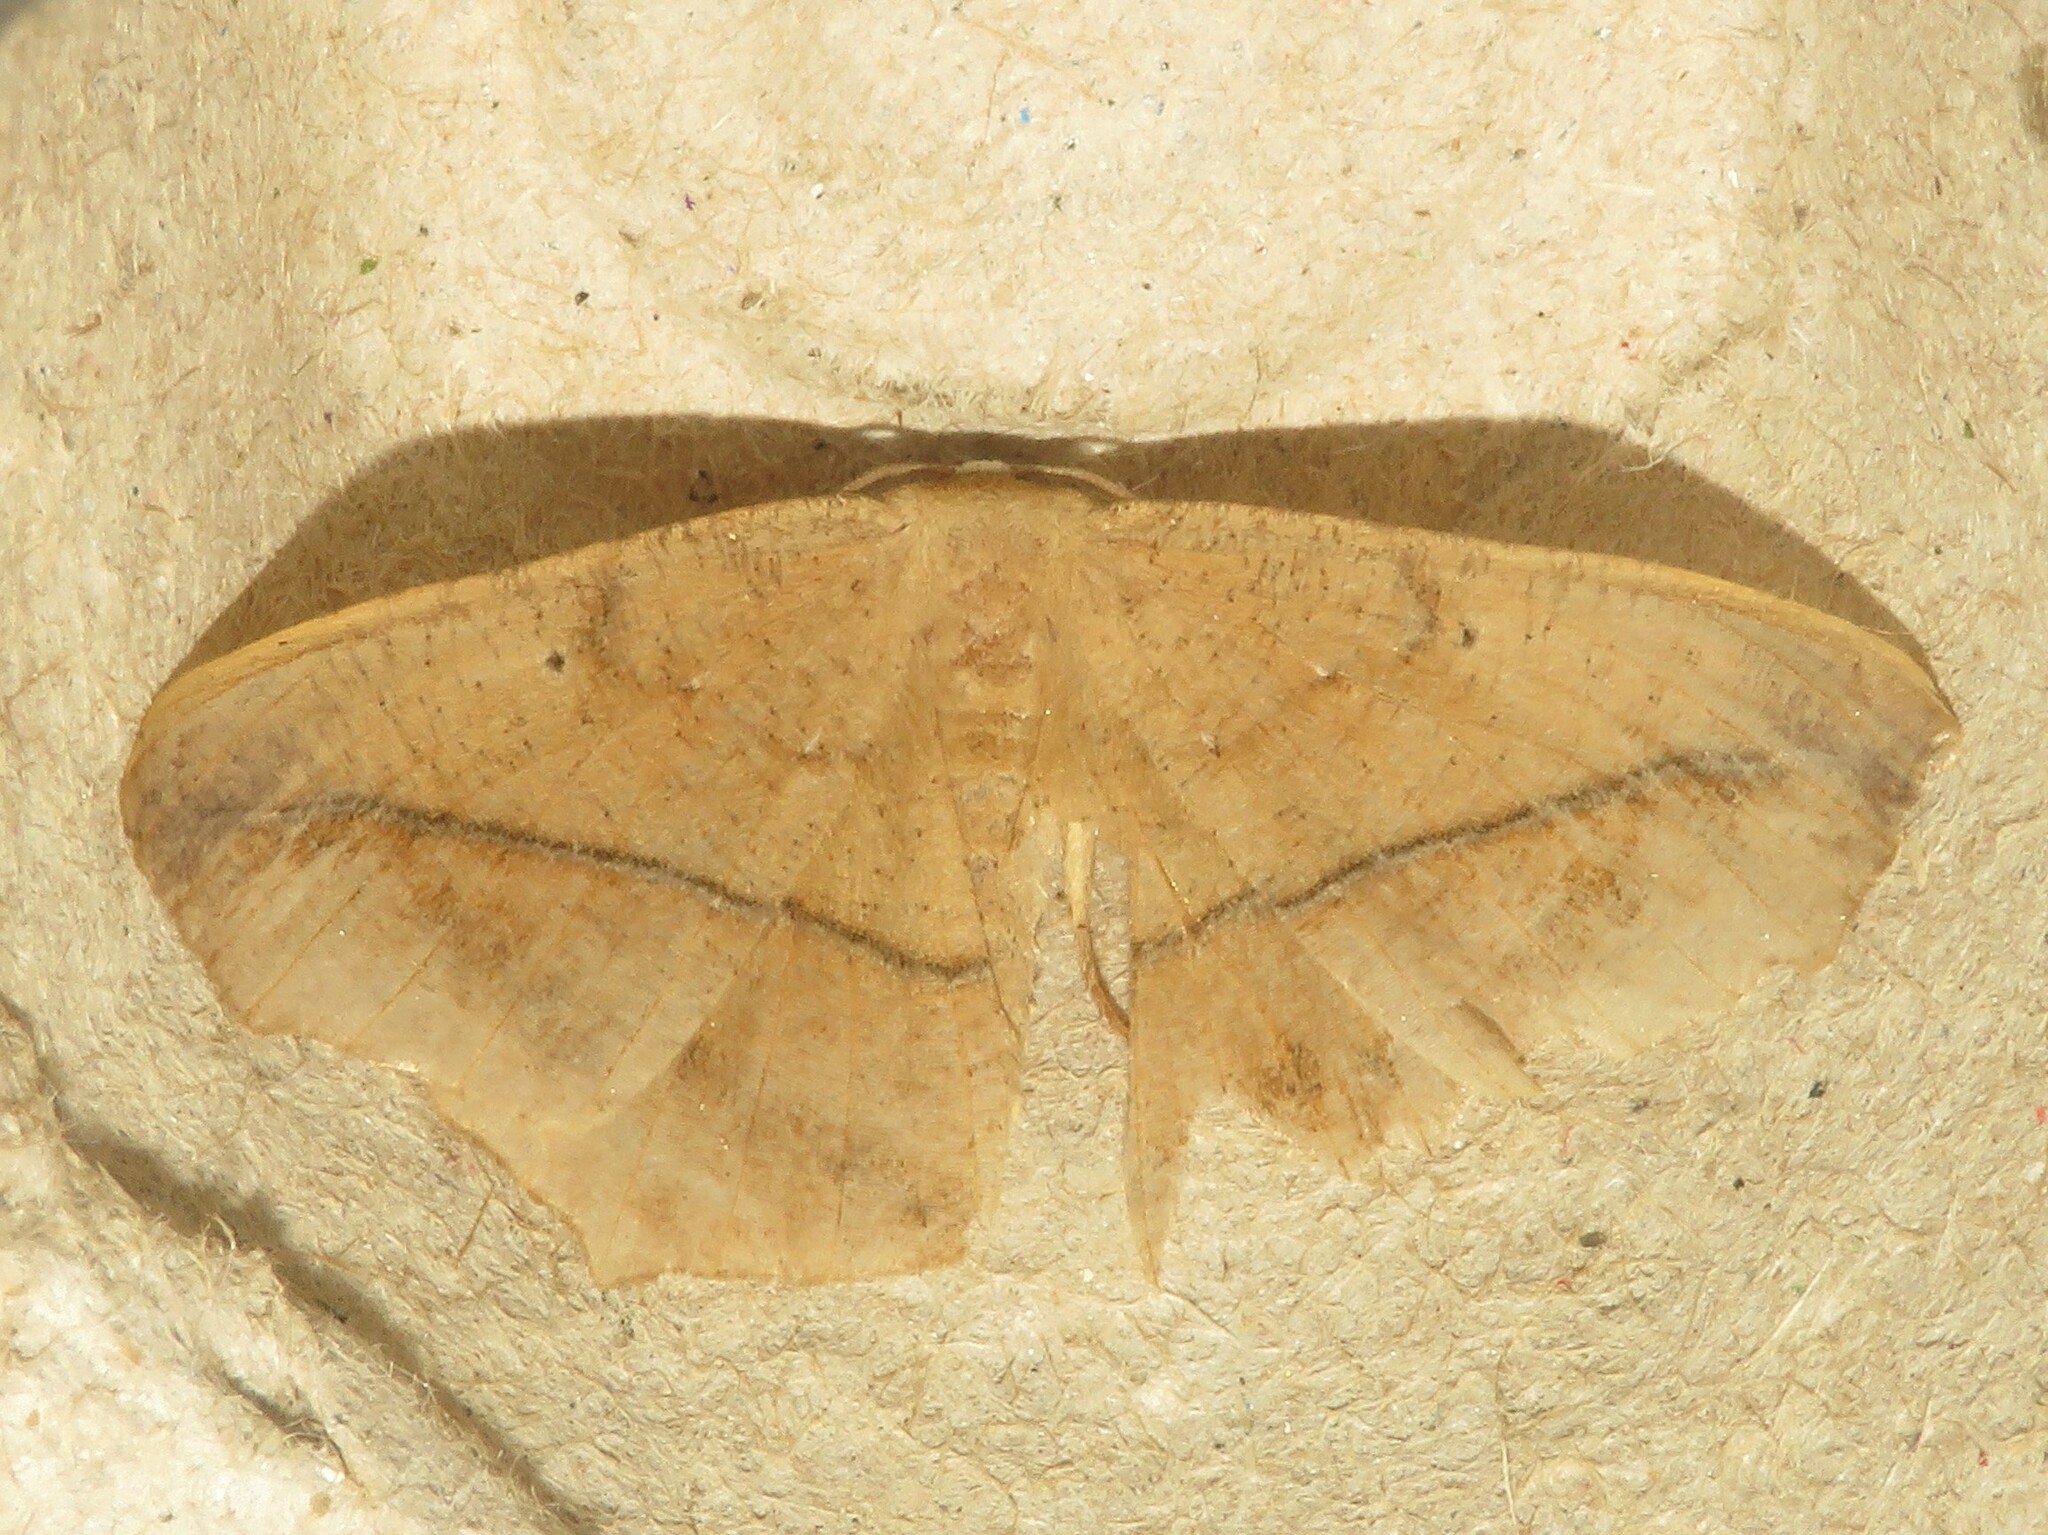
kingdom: Animalia
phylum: Arthropoda
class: Insecta
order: Lepidoptera
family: Geometridae
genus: Prochoerodes
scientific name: Prochoerodes lineola
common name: Large maple spanworm
